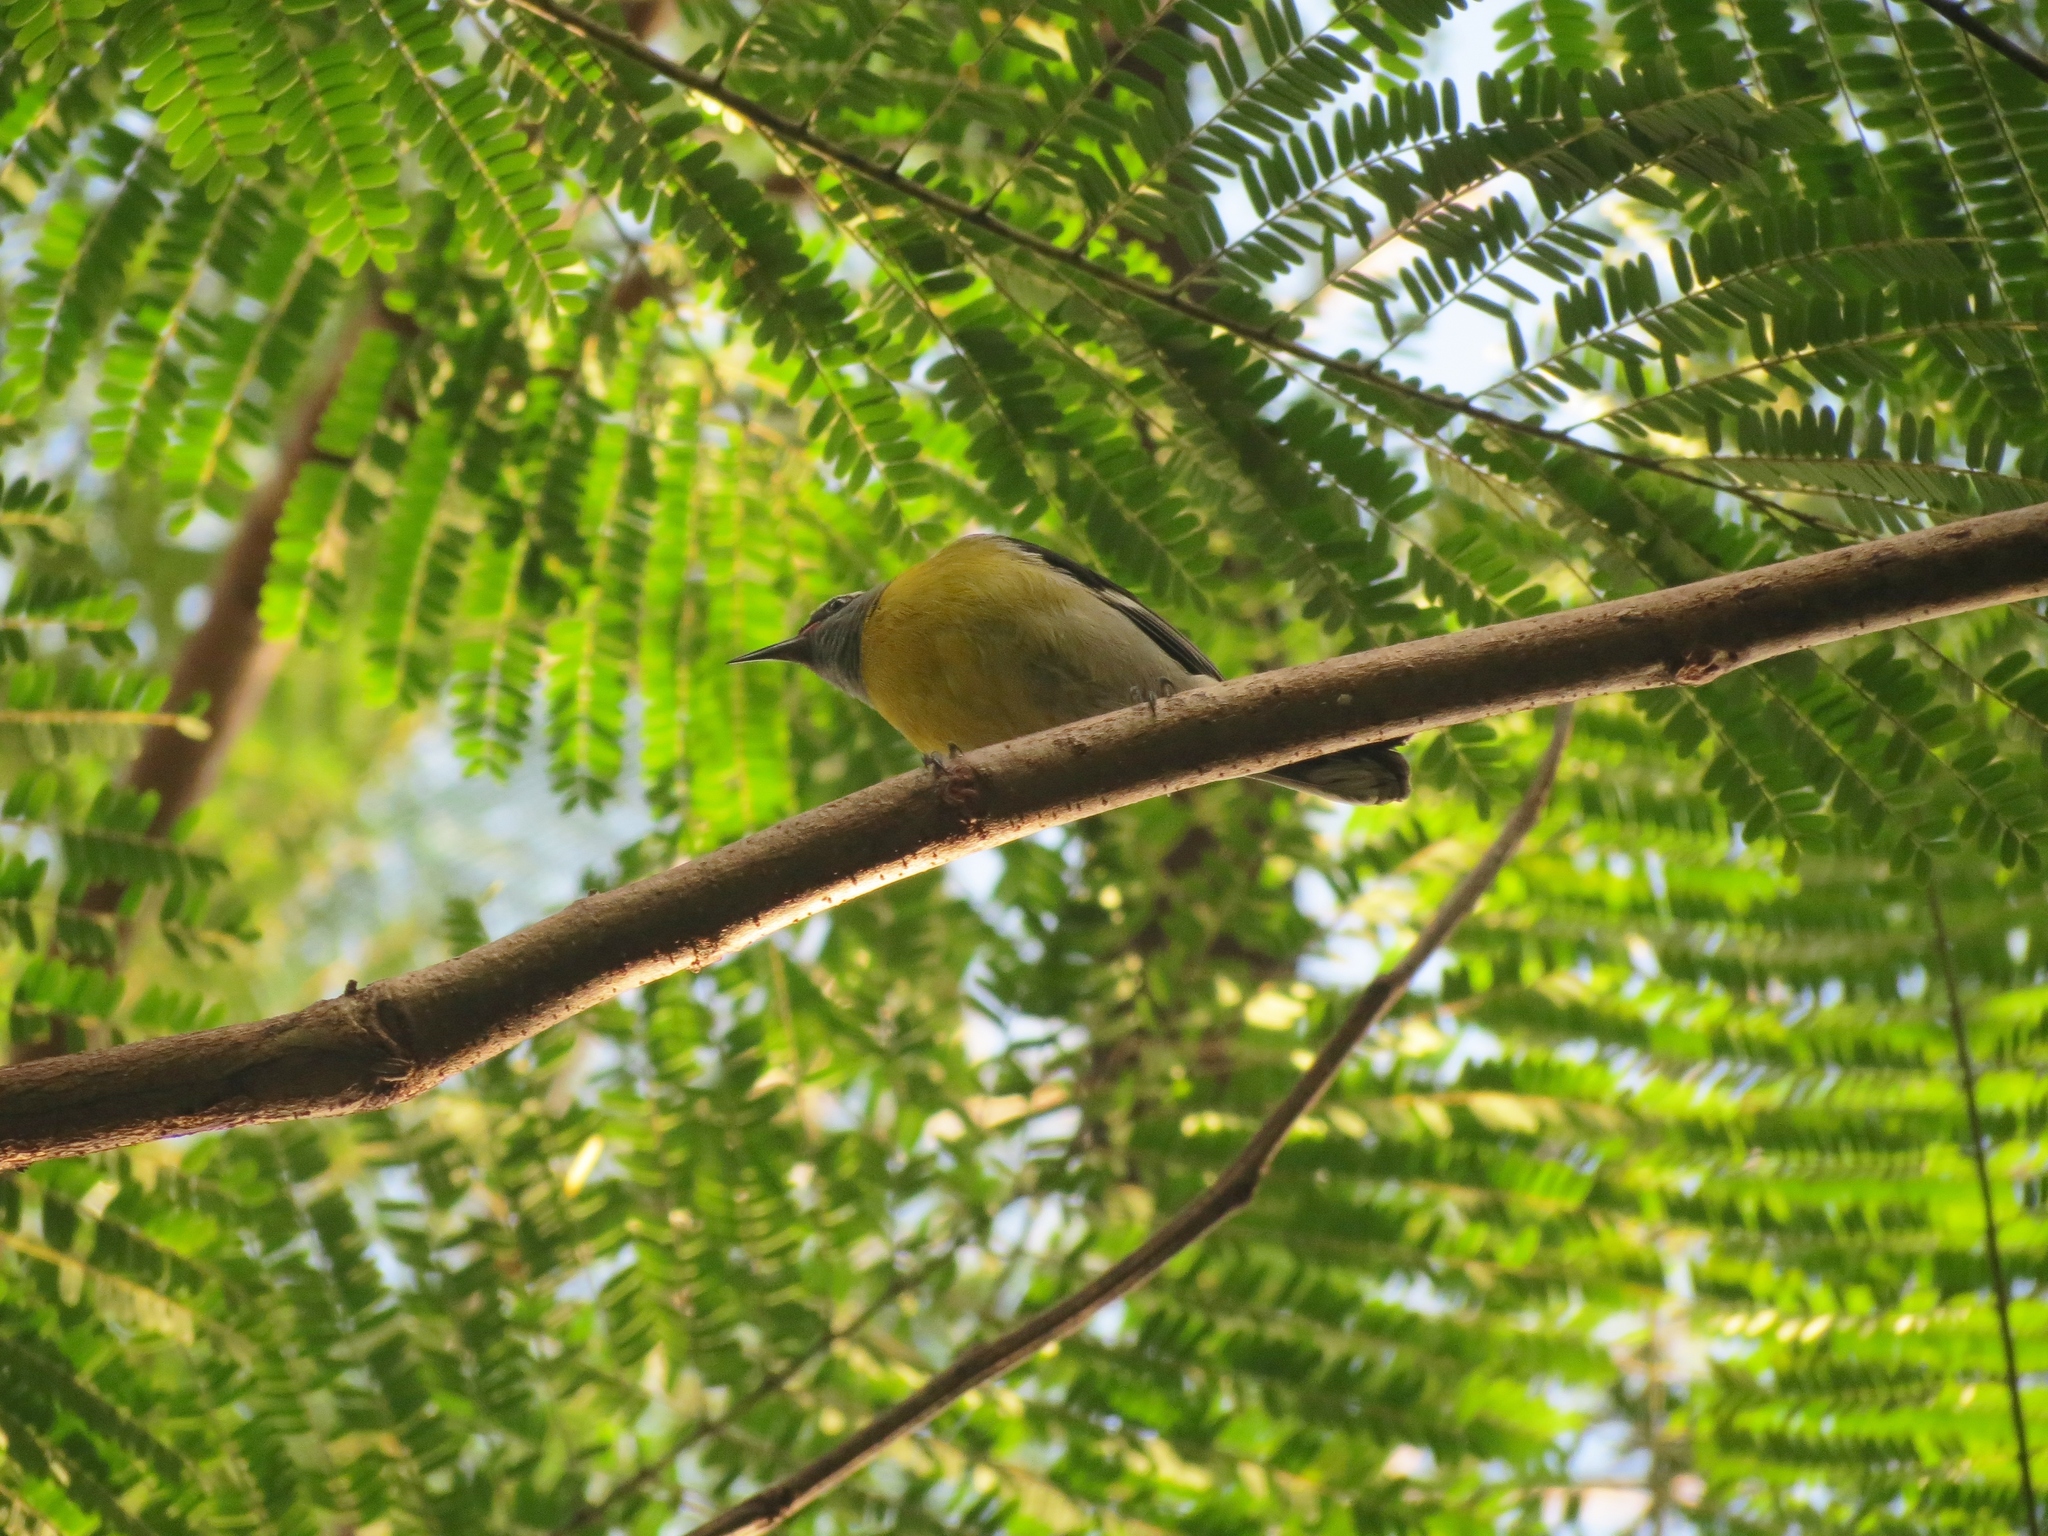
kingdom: Animalia
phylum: Chordata
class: Aves
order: Passeriformes
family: Thraupidae
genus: Coereba
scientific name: Coereba flaveola
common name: Bananaquit
